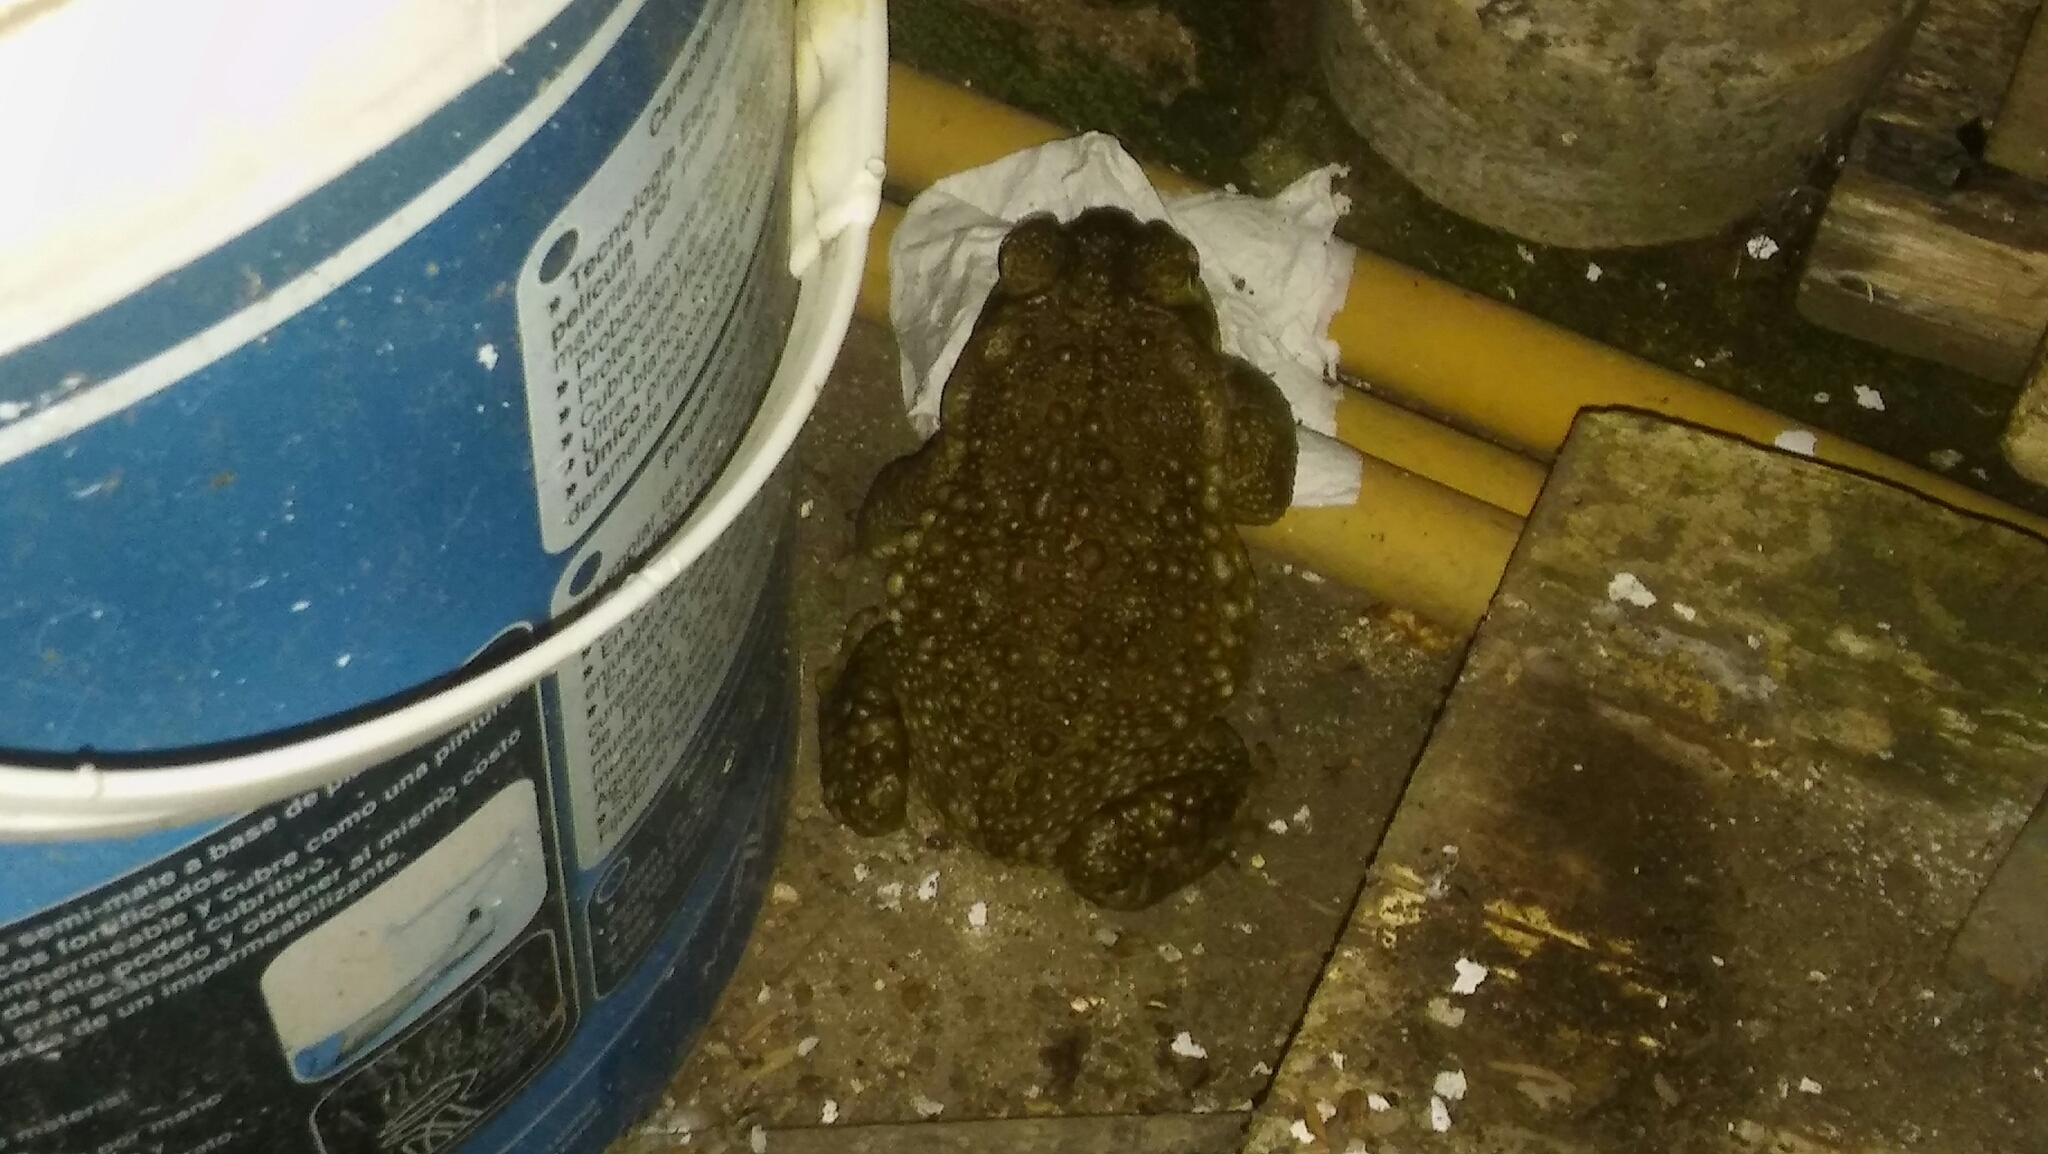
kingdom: Animalia
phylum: Chordata
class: Amphibia
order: Anura
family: Bufonidae
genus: Rhinella
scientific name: Rhinella arenarum
